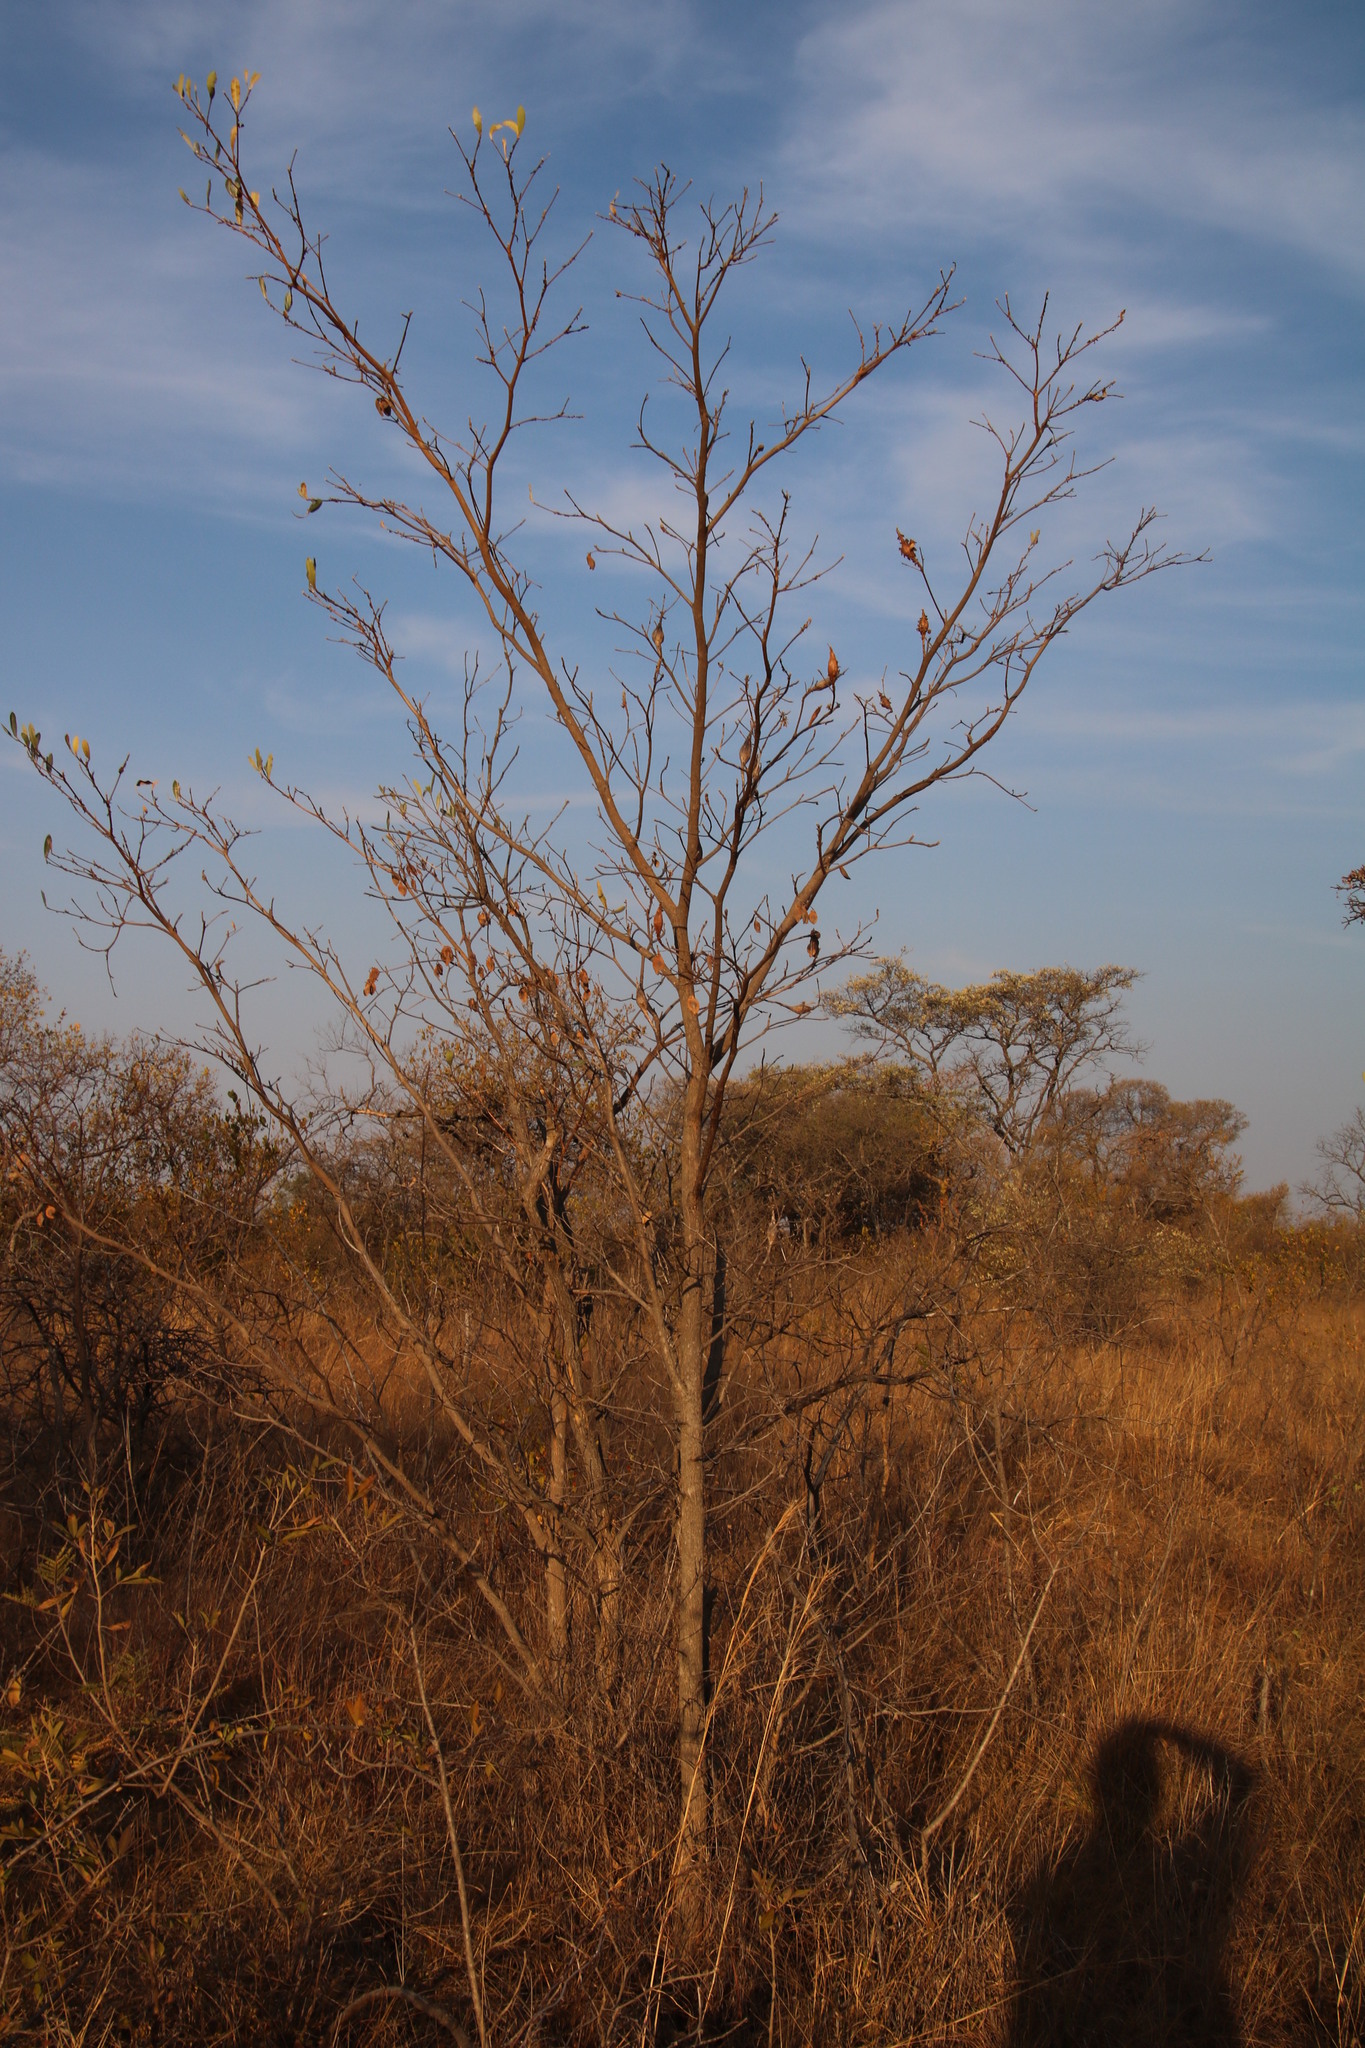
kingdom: Plantae
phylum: Tracheophyta
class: Magnoliopsida
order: Myrtales
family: Combretaceae
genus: Terminalia
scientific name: Terminalia sericea
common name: Clusterleaf
